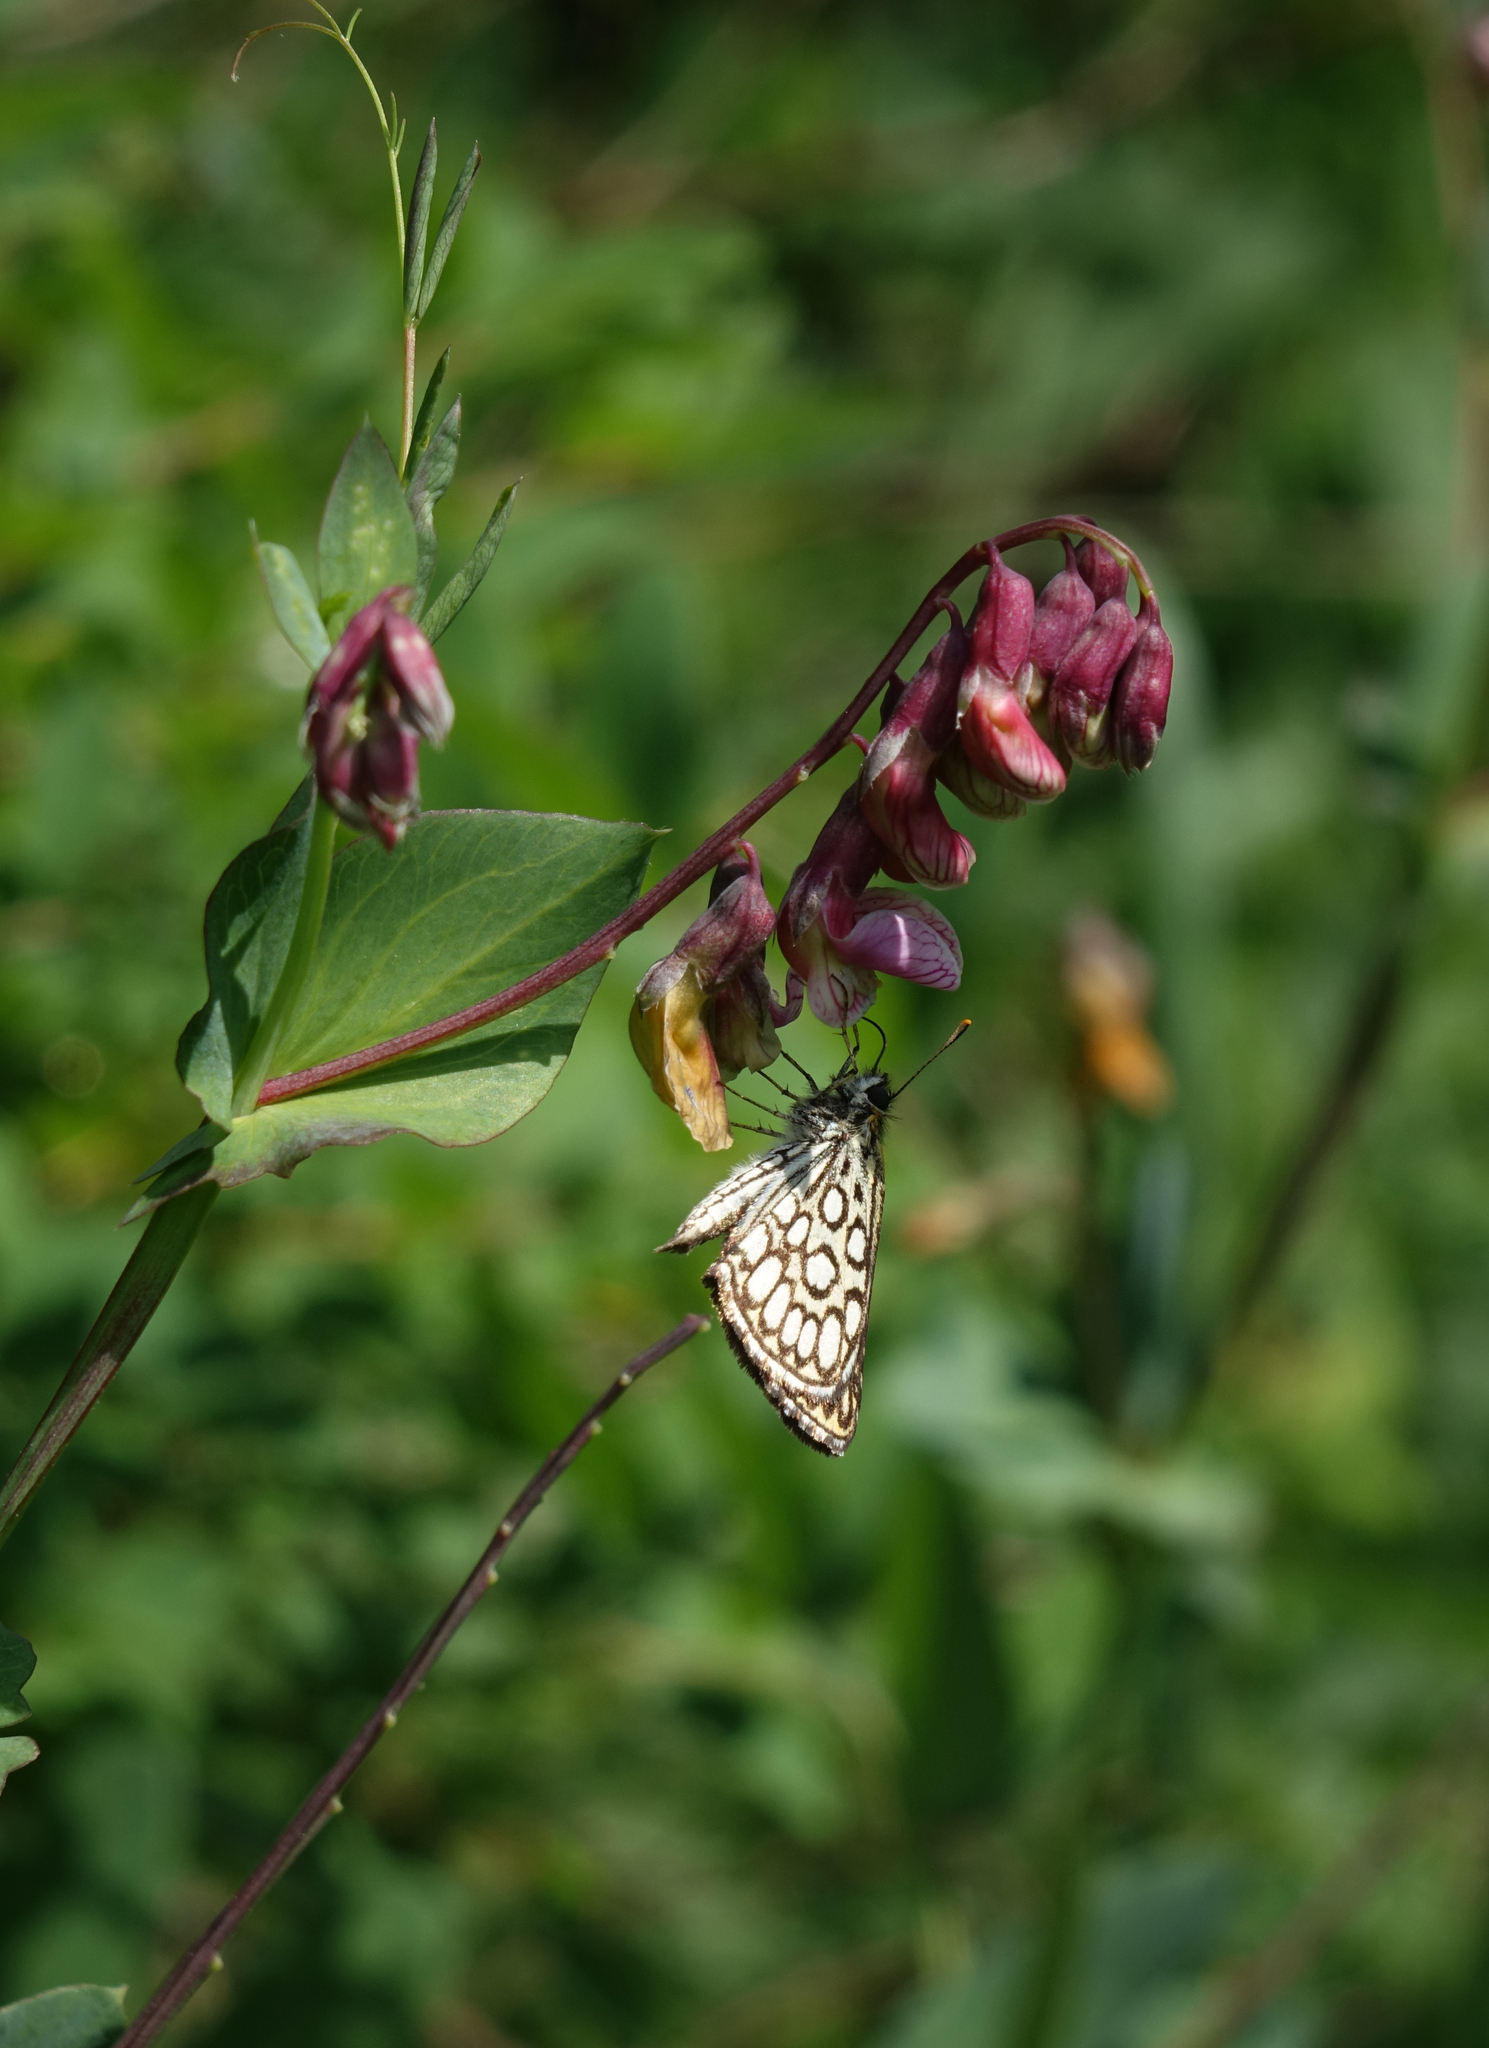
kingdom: Animalia
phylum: Arthropoda
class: Insecta
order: Lepidoptera
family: Hesperiidae
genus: Heteropterus
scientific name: Heteropterus morpheus
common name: Large chequered skipper
